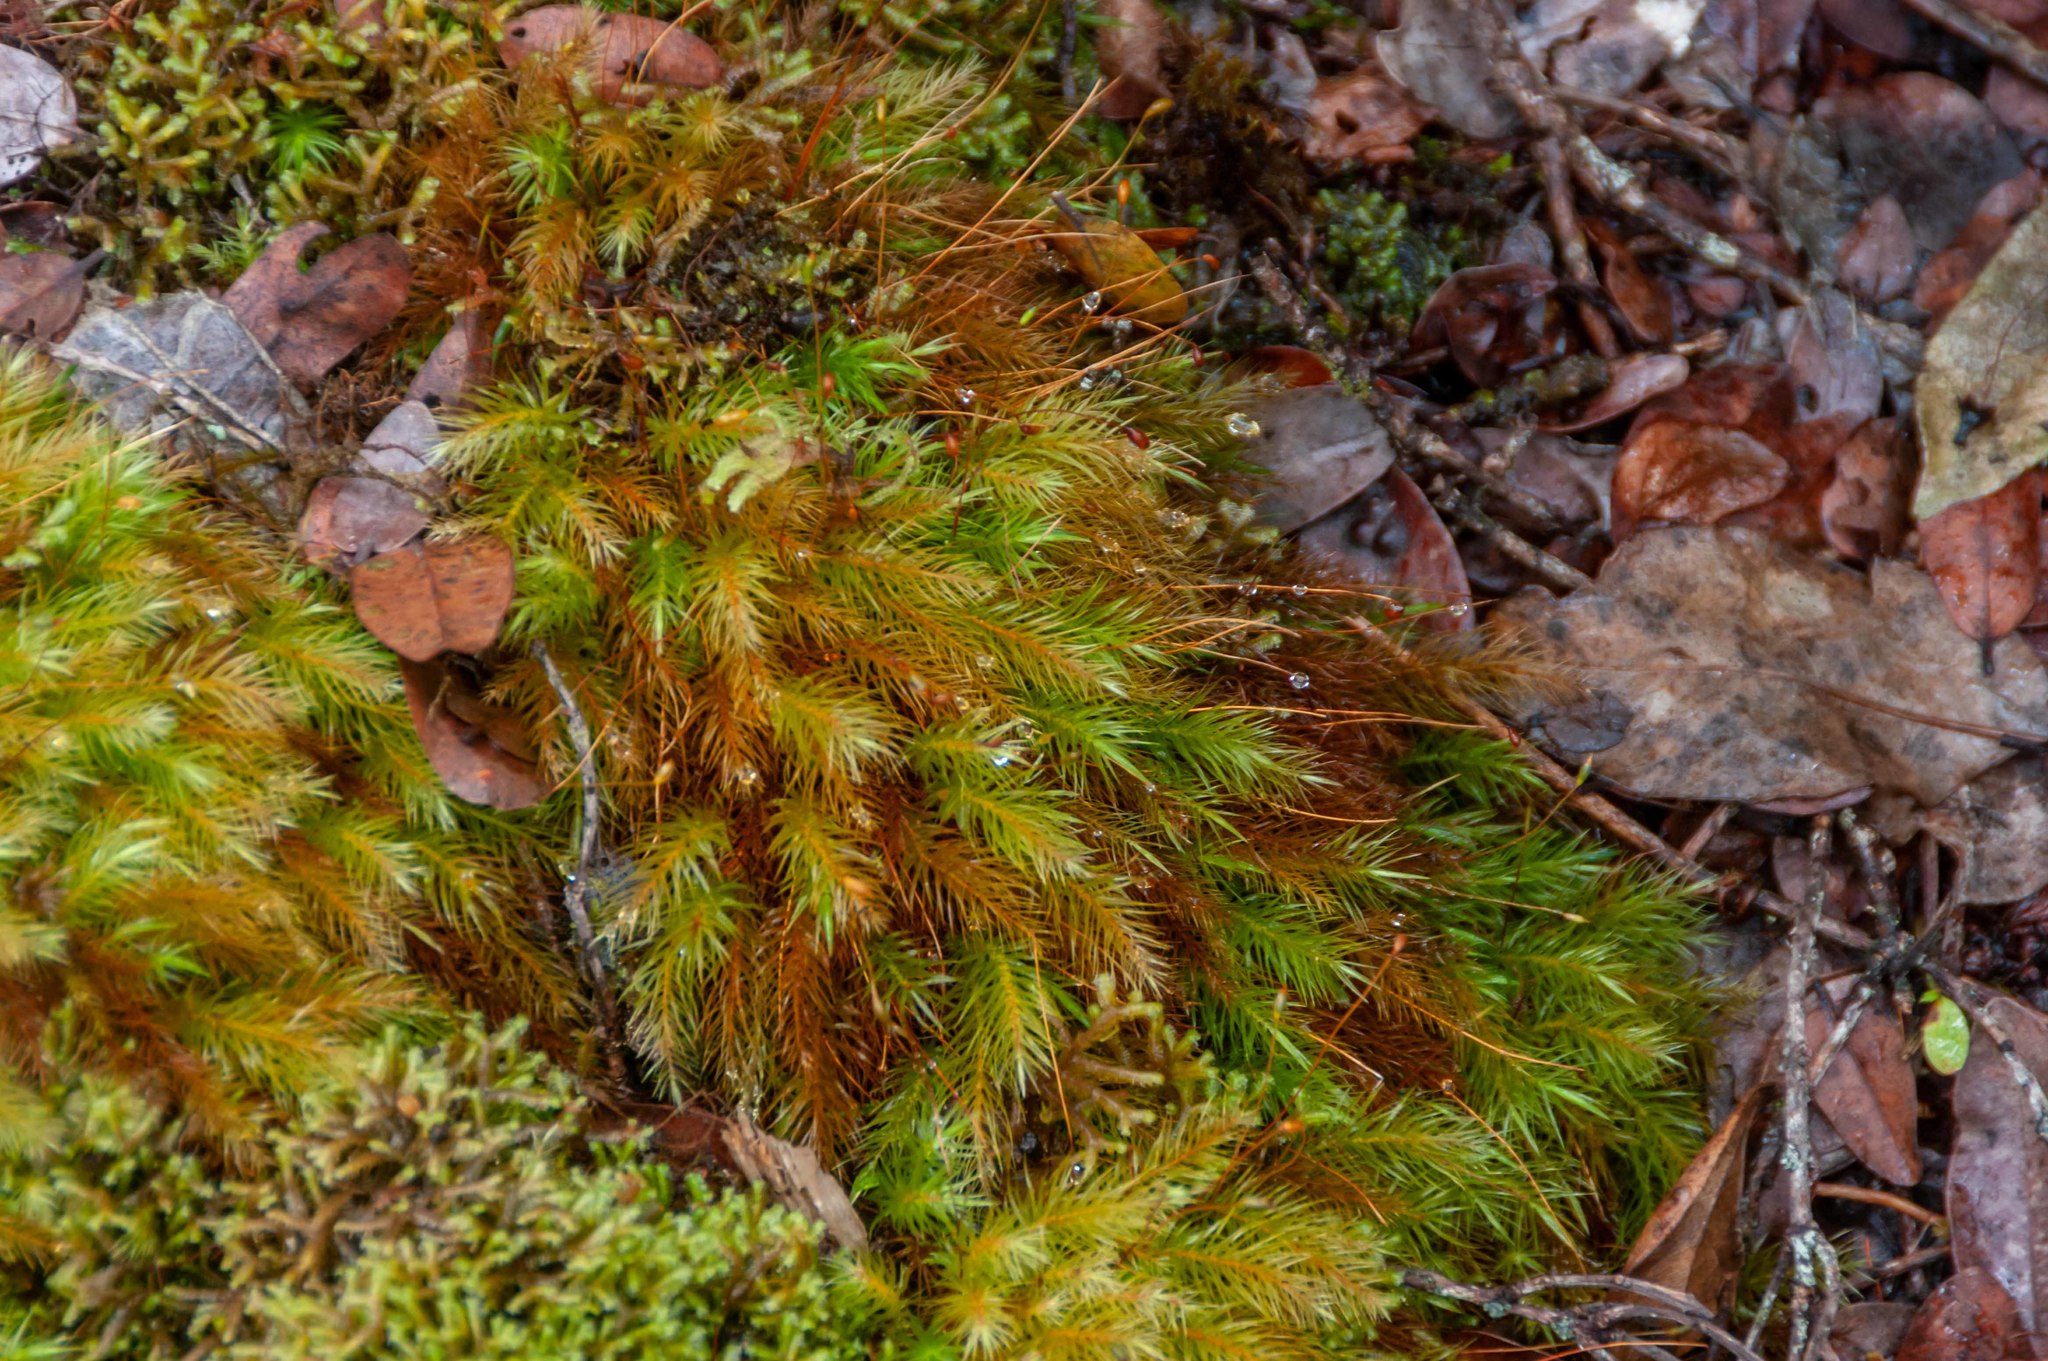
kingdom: Plantae
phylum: Bryophyta
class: Bryopsida
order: Rhizogoniales
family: Calomniaceae
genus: Pyrrhobryum
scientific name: Pyrrhobryum spiniforme
